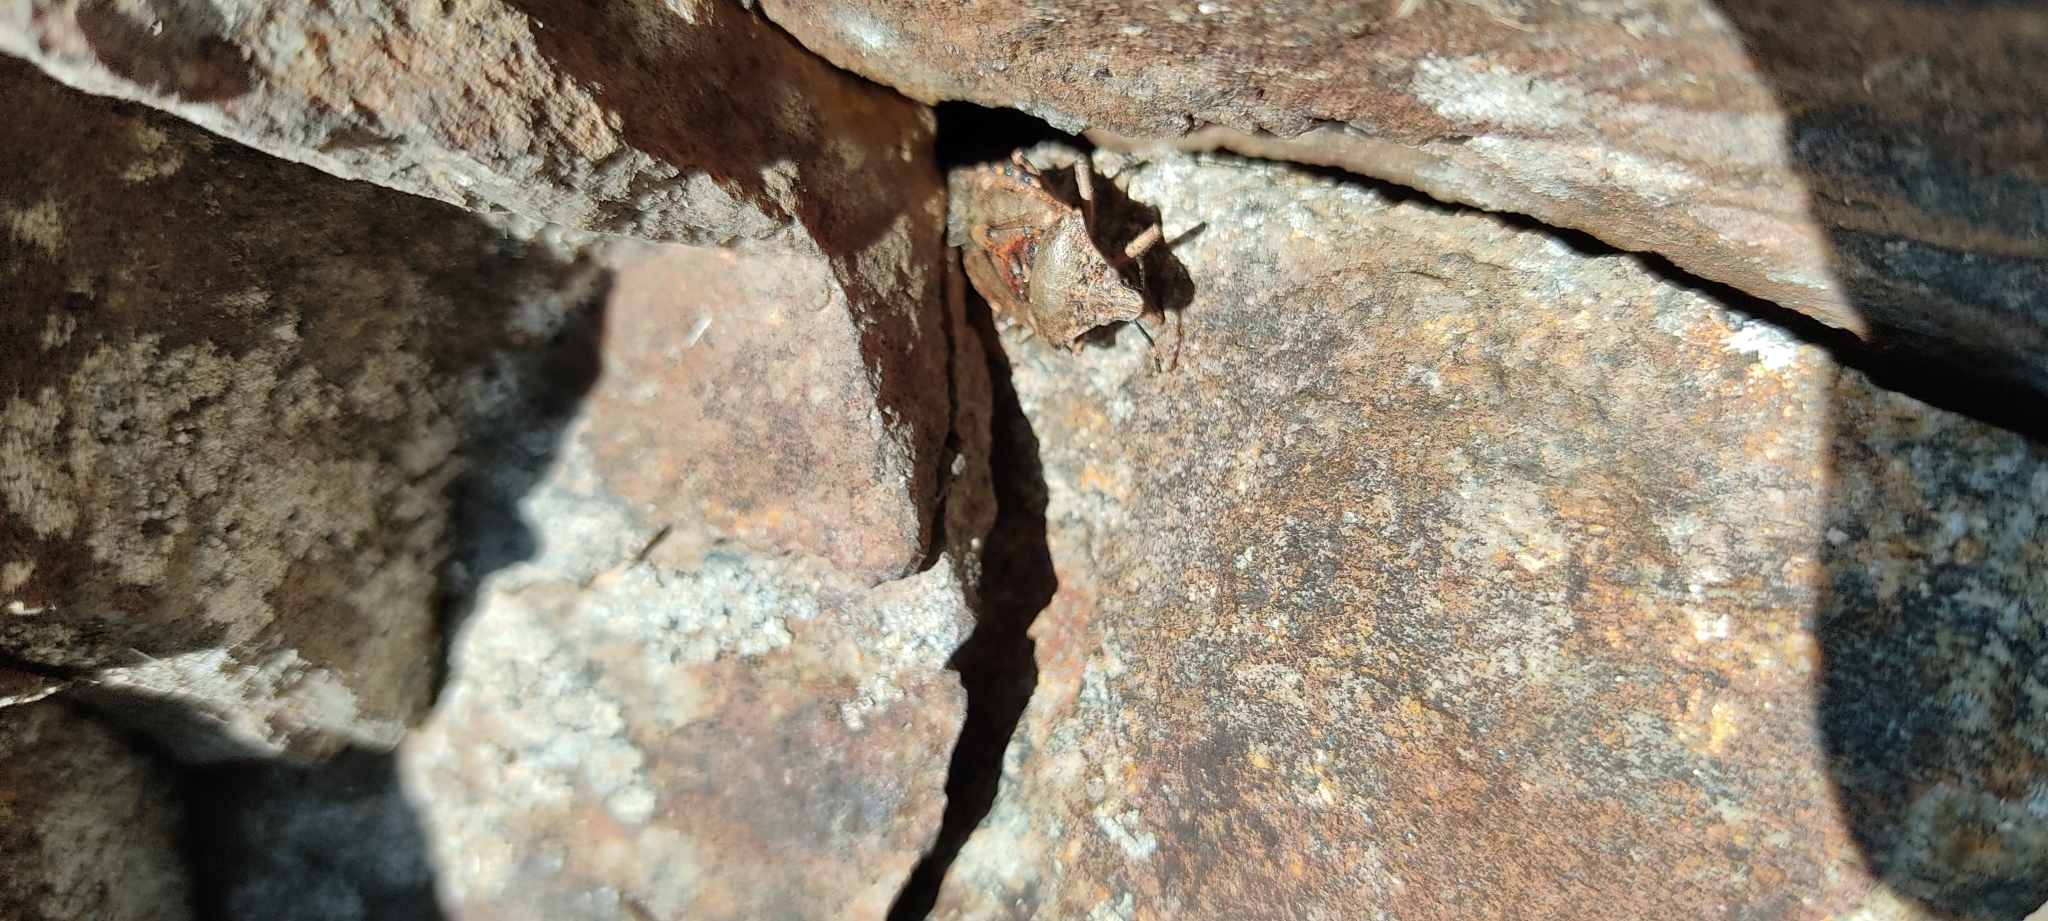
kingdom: Animalia
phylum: Arthropoda
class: Insecta
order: Hemiptera
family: Pentatomidae
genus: Rhaphigaster
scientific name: Rhaphigaster nebulosa
